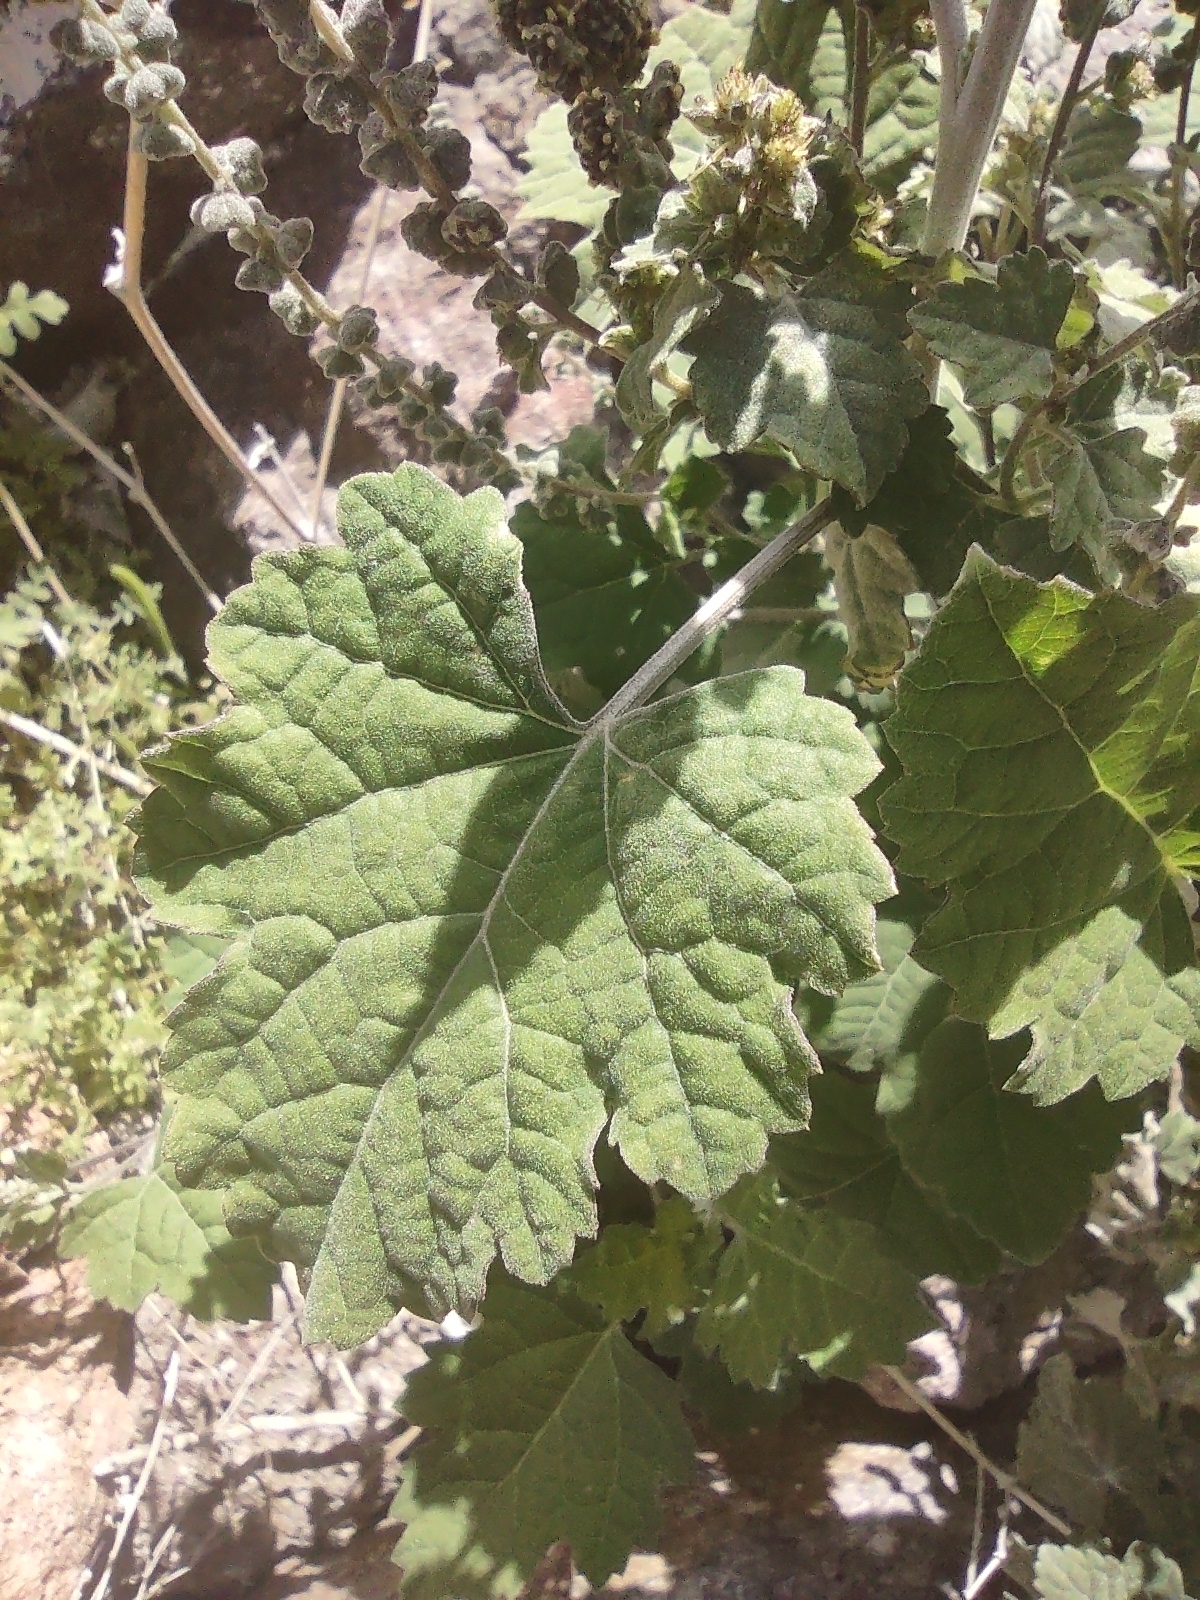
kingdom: Plantae
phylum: Tracheophyta
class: Magnoliopsida
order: Asterales
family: Asteraceae
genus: Ambrosia
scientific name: Ambrosia cordifolia
